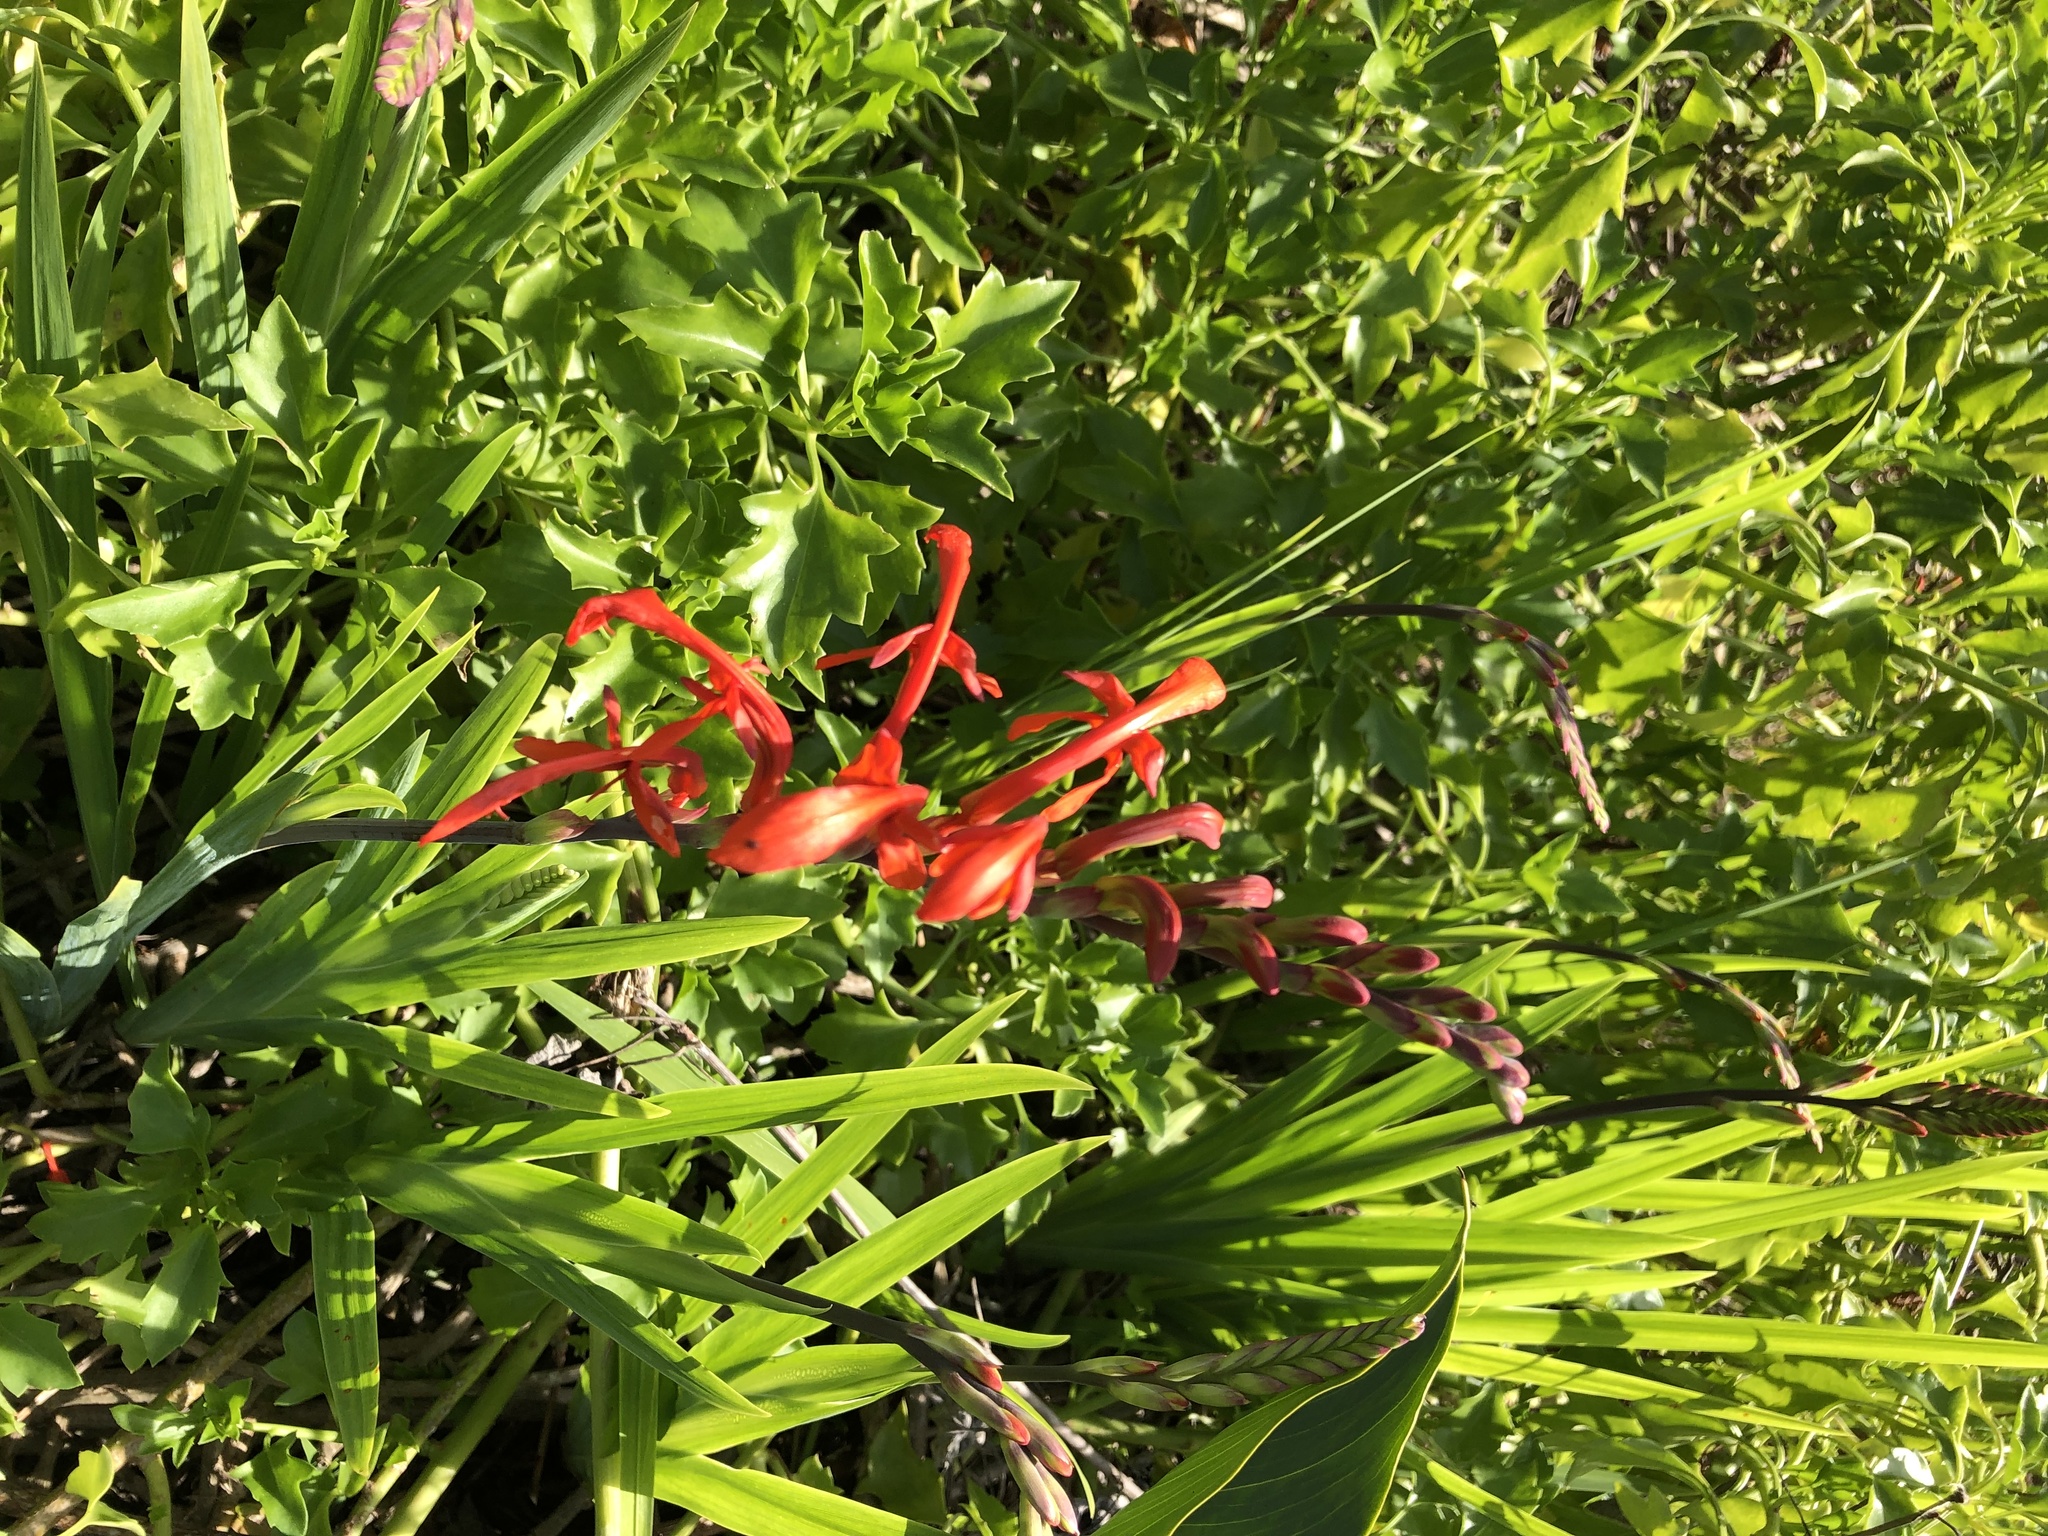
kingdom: Plantae
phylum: Tracheophyta
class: Liliopsida
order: Asparagales
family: Iridaceae
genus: Chasmanthe
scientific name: Chasmanthe aethiopica
